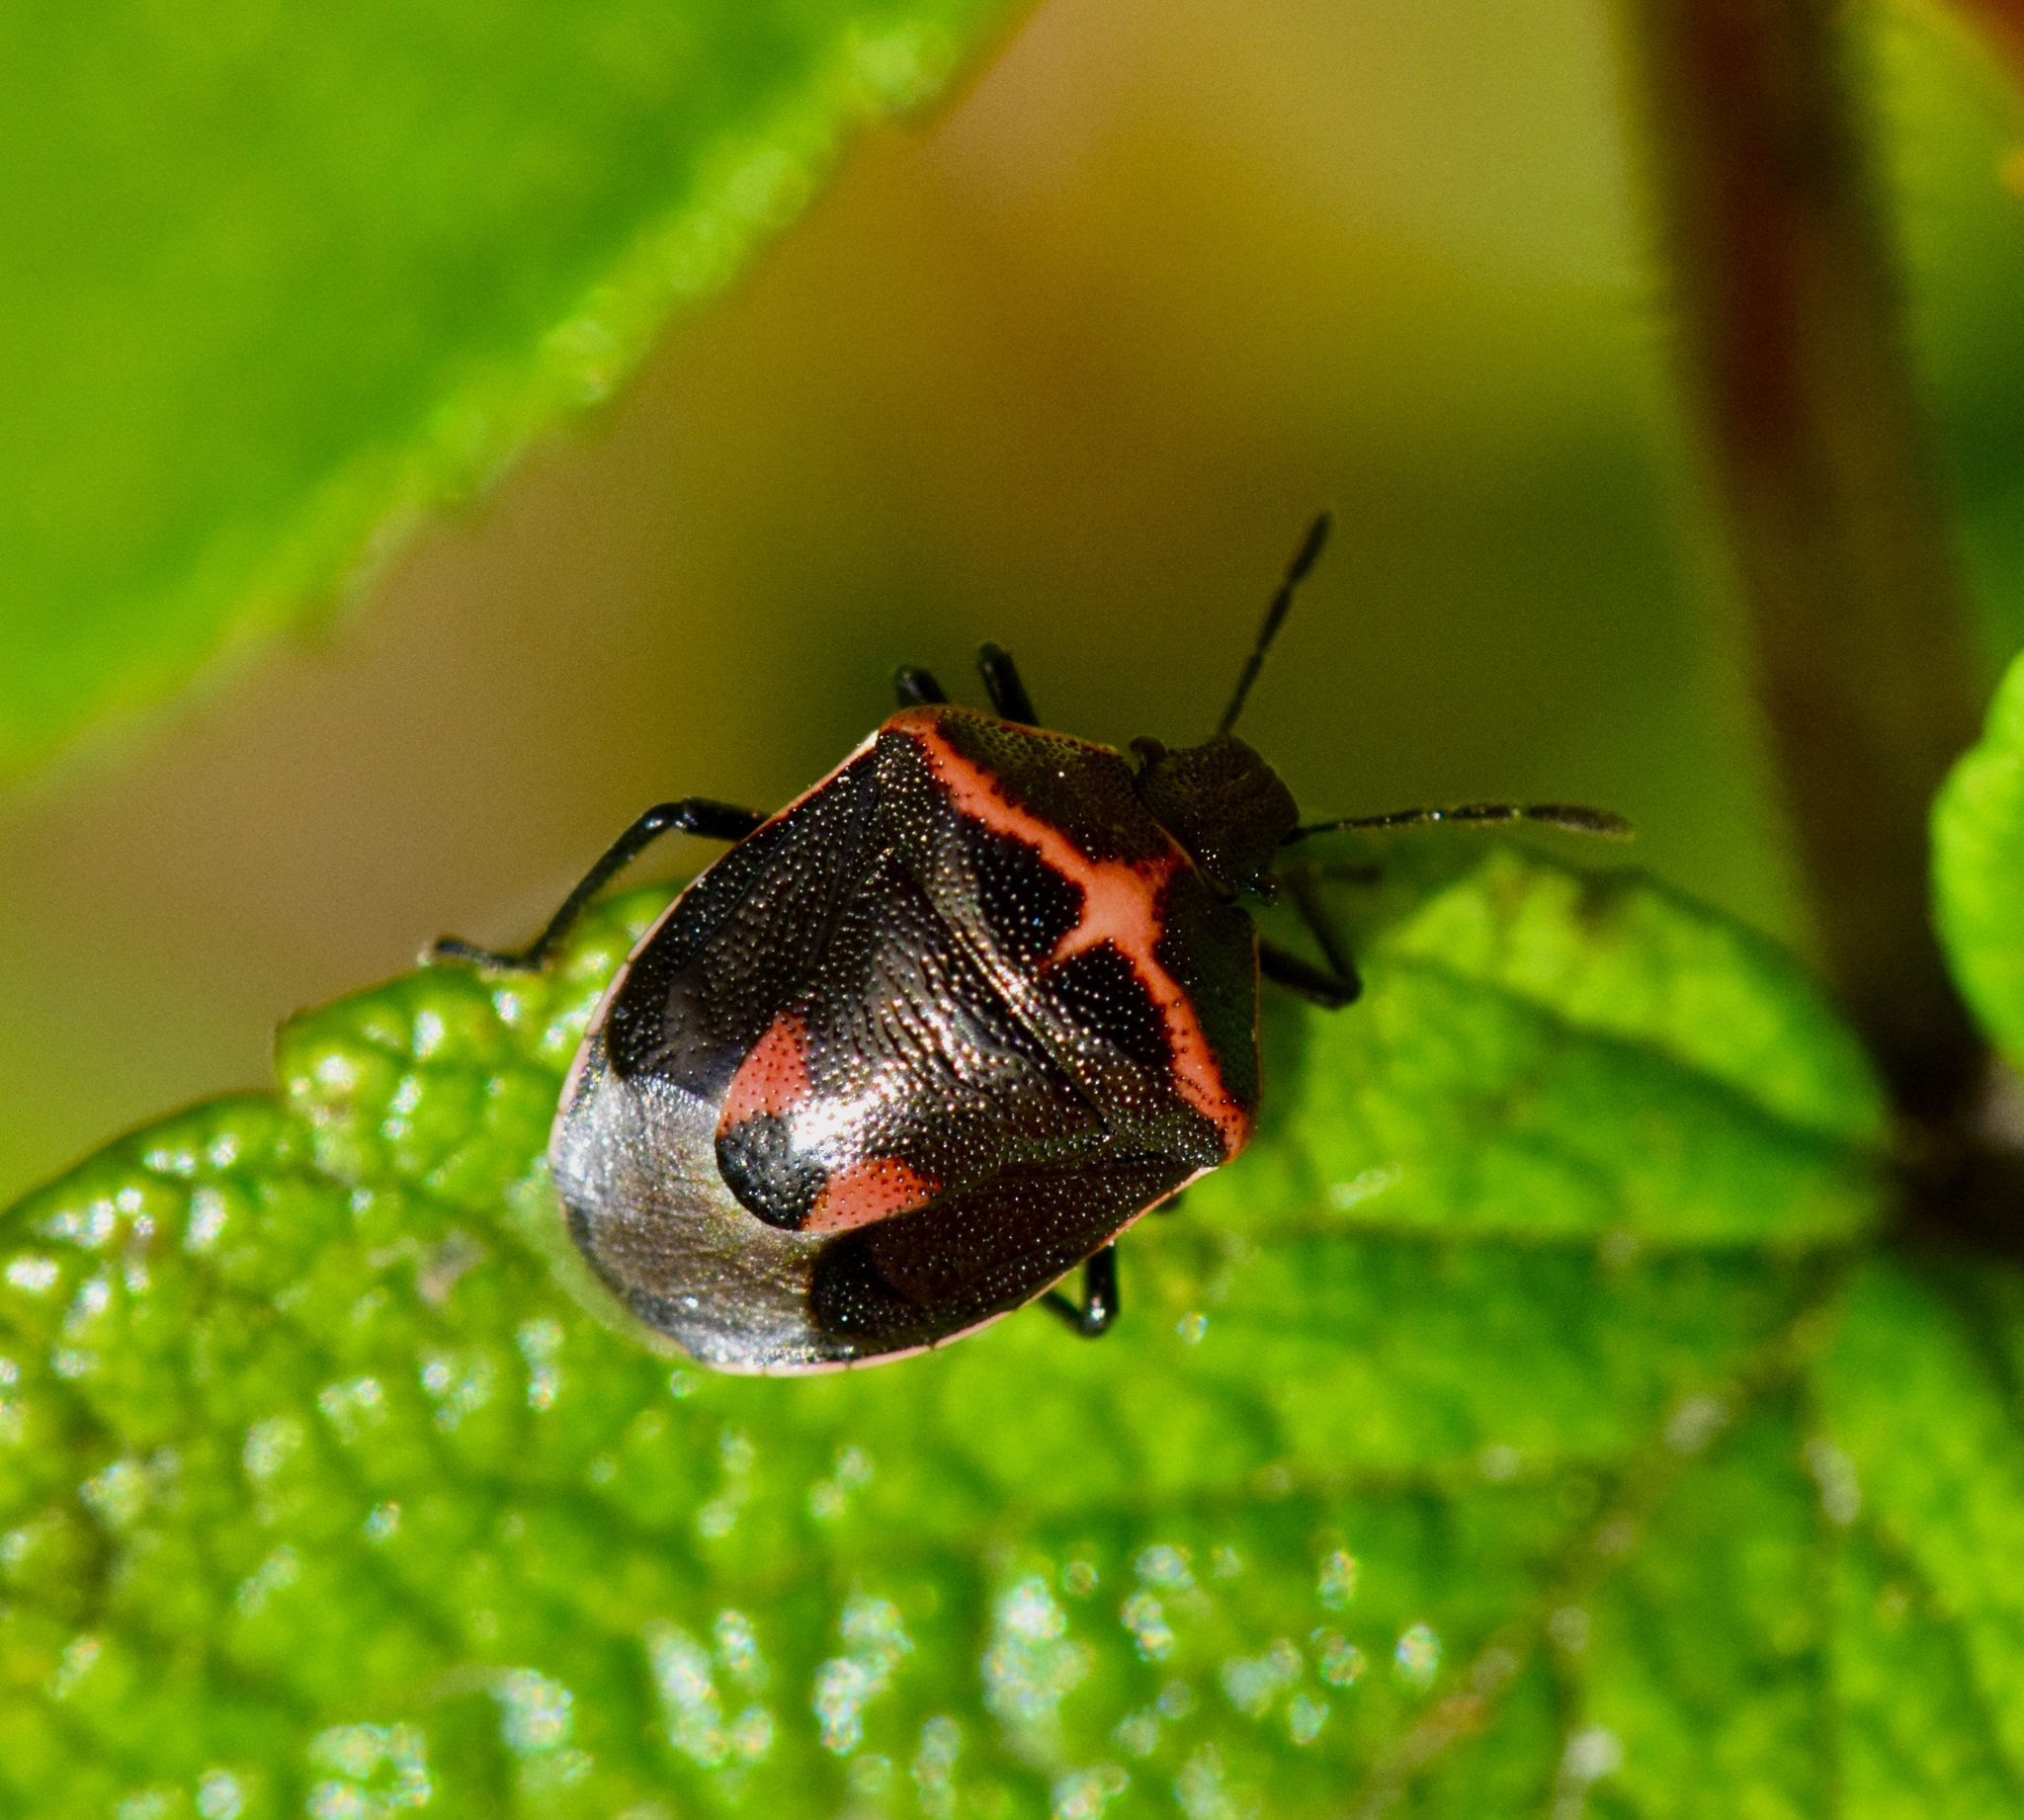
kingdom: Animalia
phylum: Arthropoda
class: Insecta
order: Hemiptera
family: Pentatomidae
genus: Cosmopepla
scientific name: Cosmopepla lintneriana
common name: Twice-stabbed stink bug
